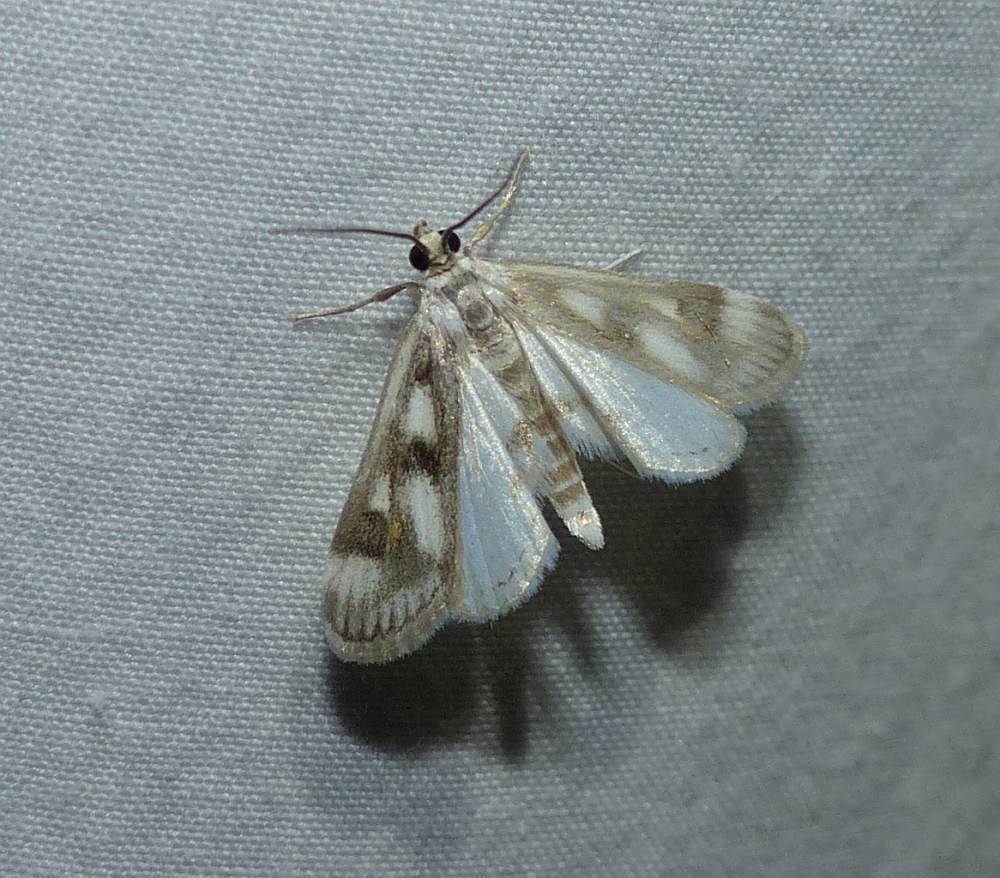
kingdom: Animalia
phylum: Arthropoda
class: Insecta
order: Lepidoptera
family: Crambidae
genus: Parapoynx
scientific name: Parapoynx maculalis
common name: Polymorphic pondweed moth
